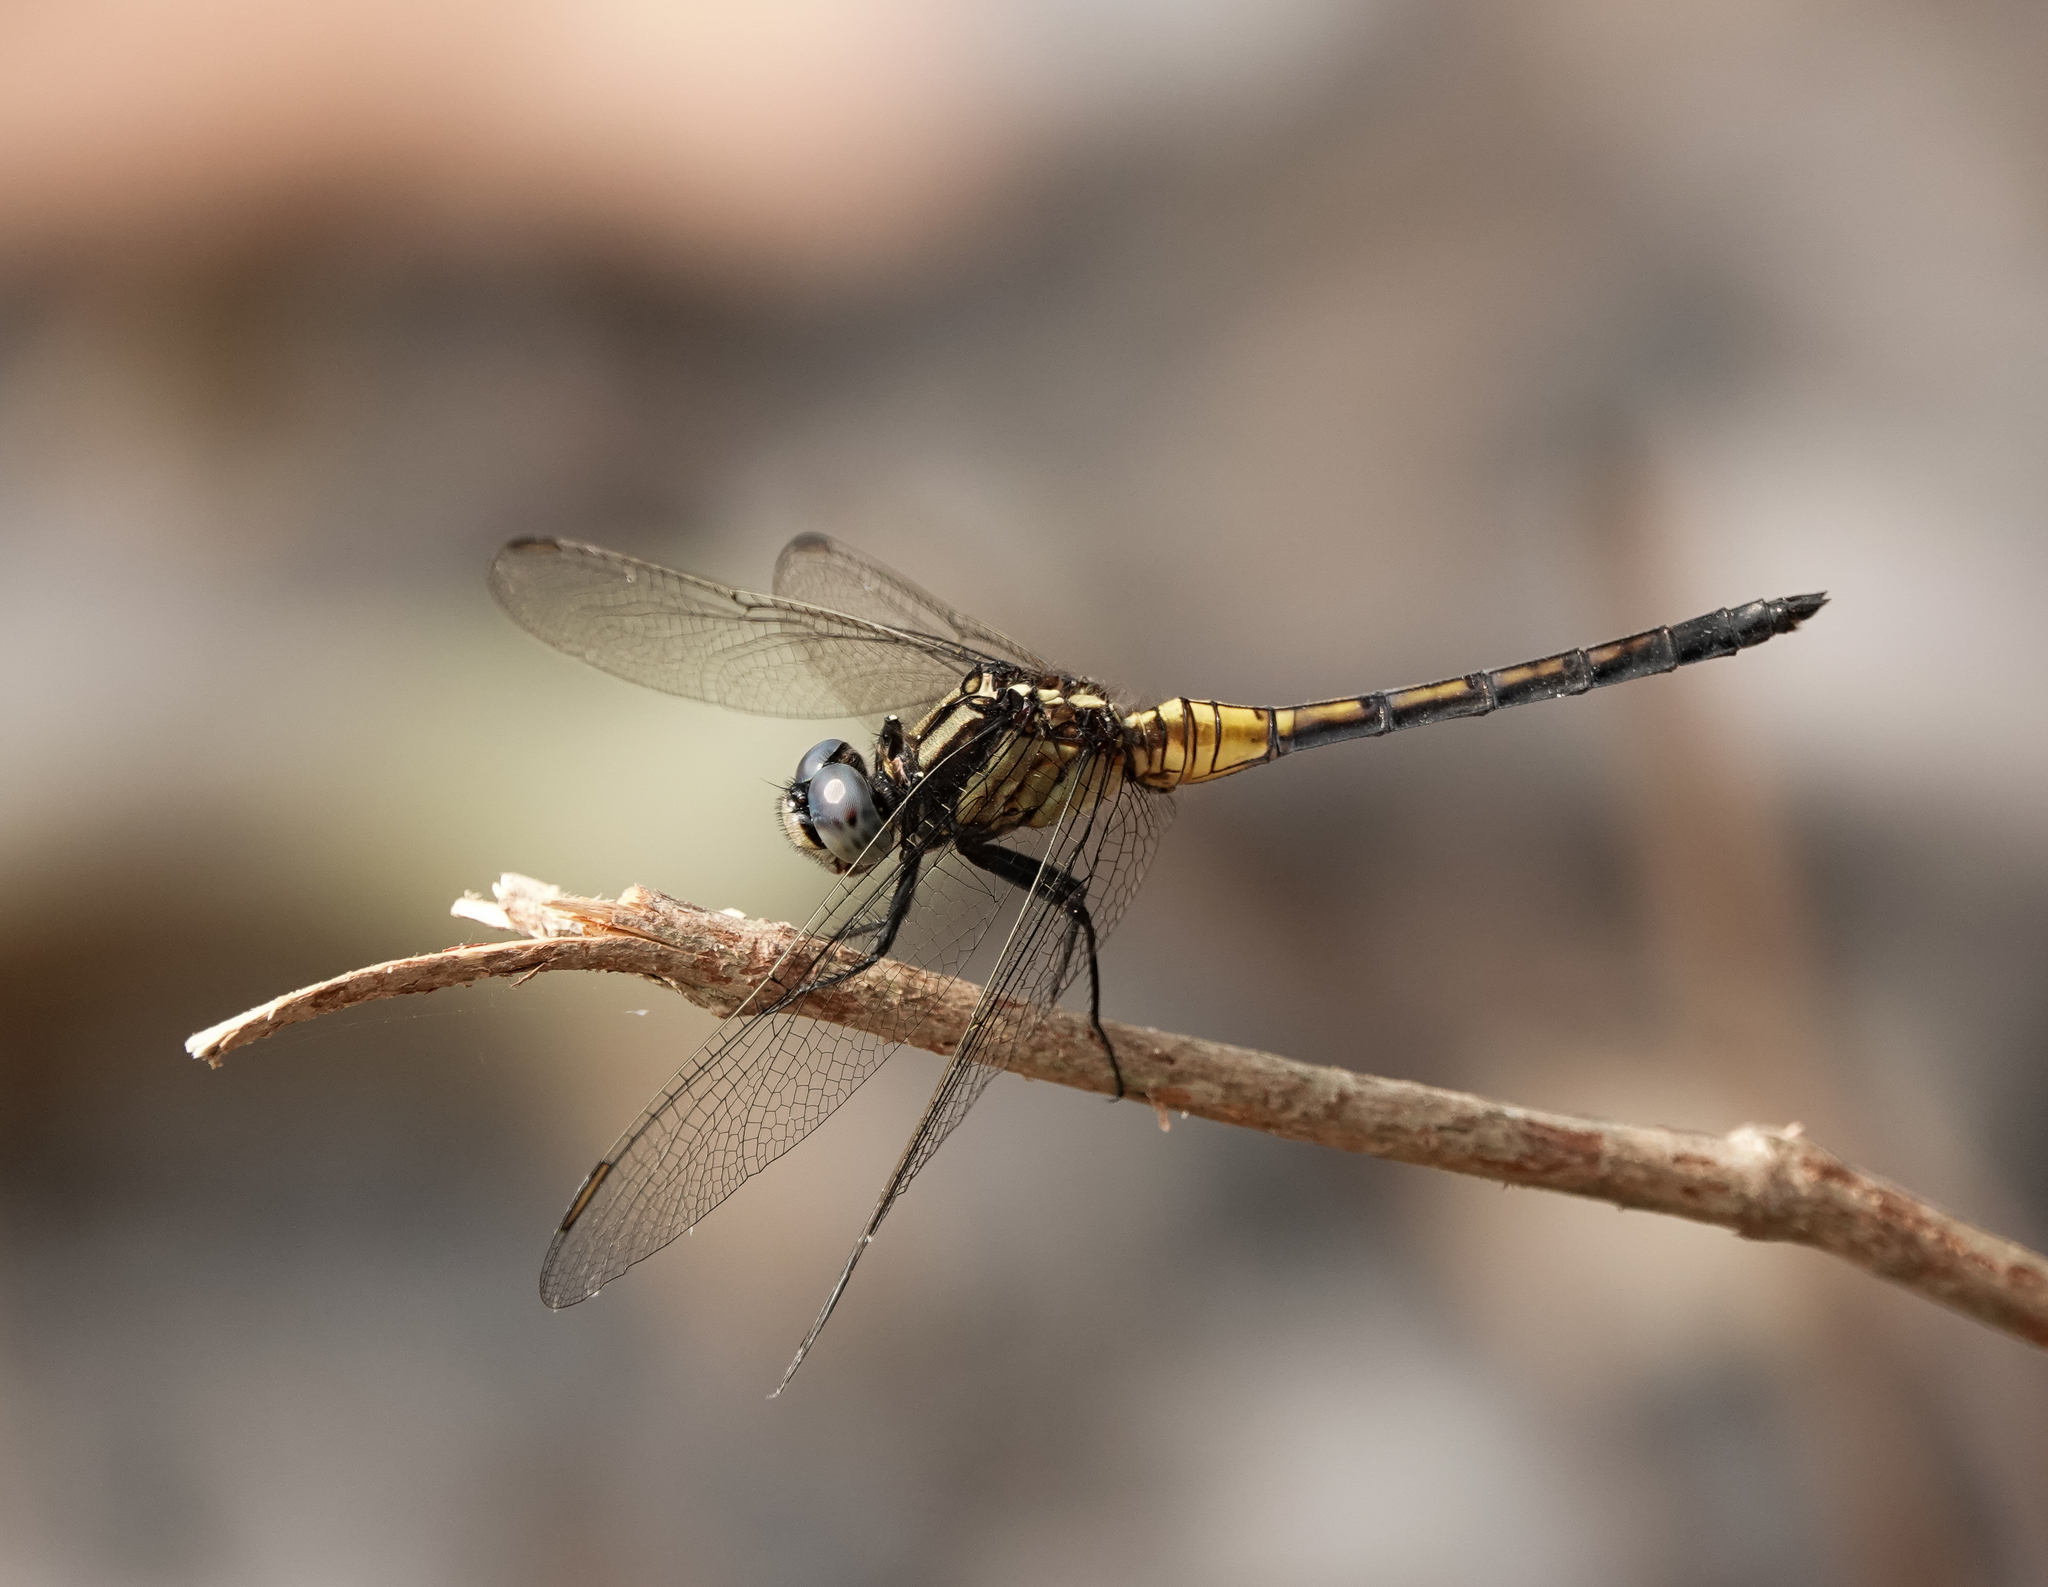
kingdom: Animalia
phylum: Arthropoda
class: Insecta
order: Odonata
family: Libellulidae
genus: Orthetrum
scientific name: Orthetrum glaucum
